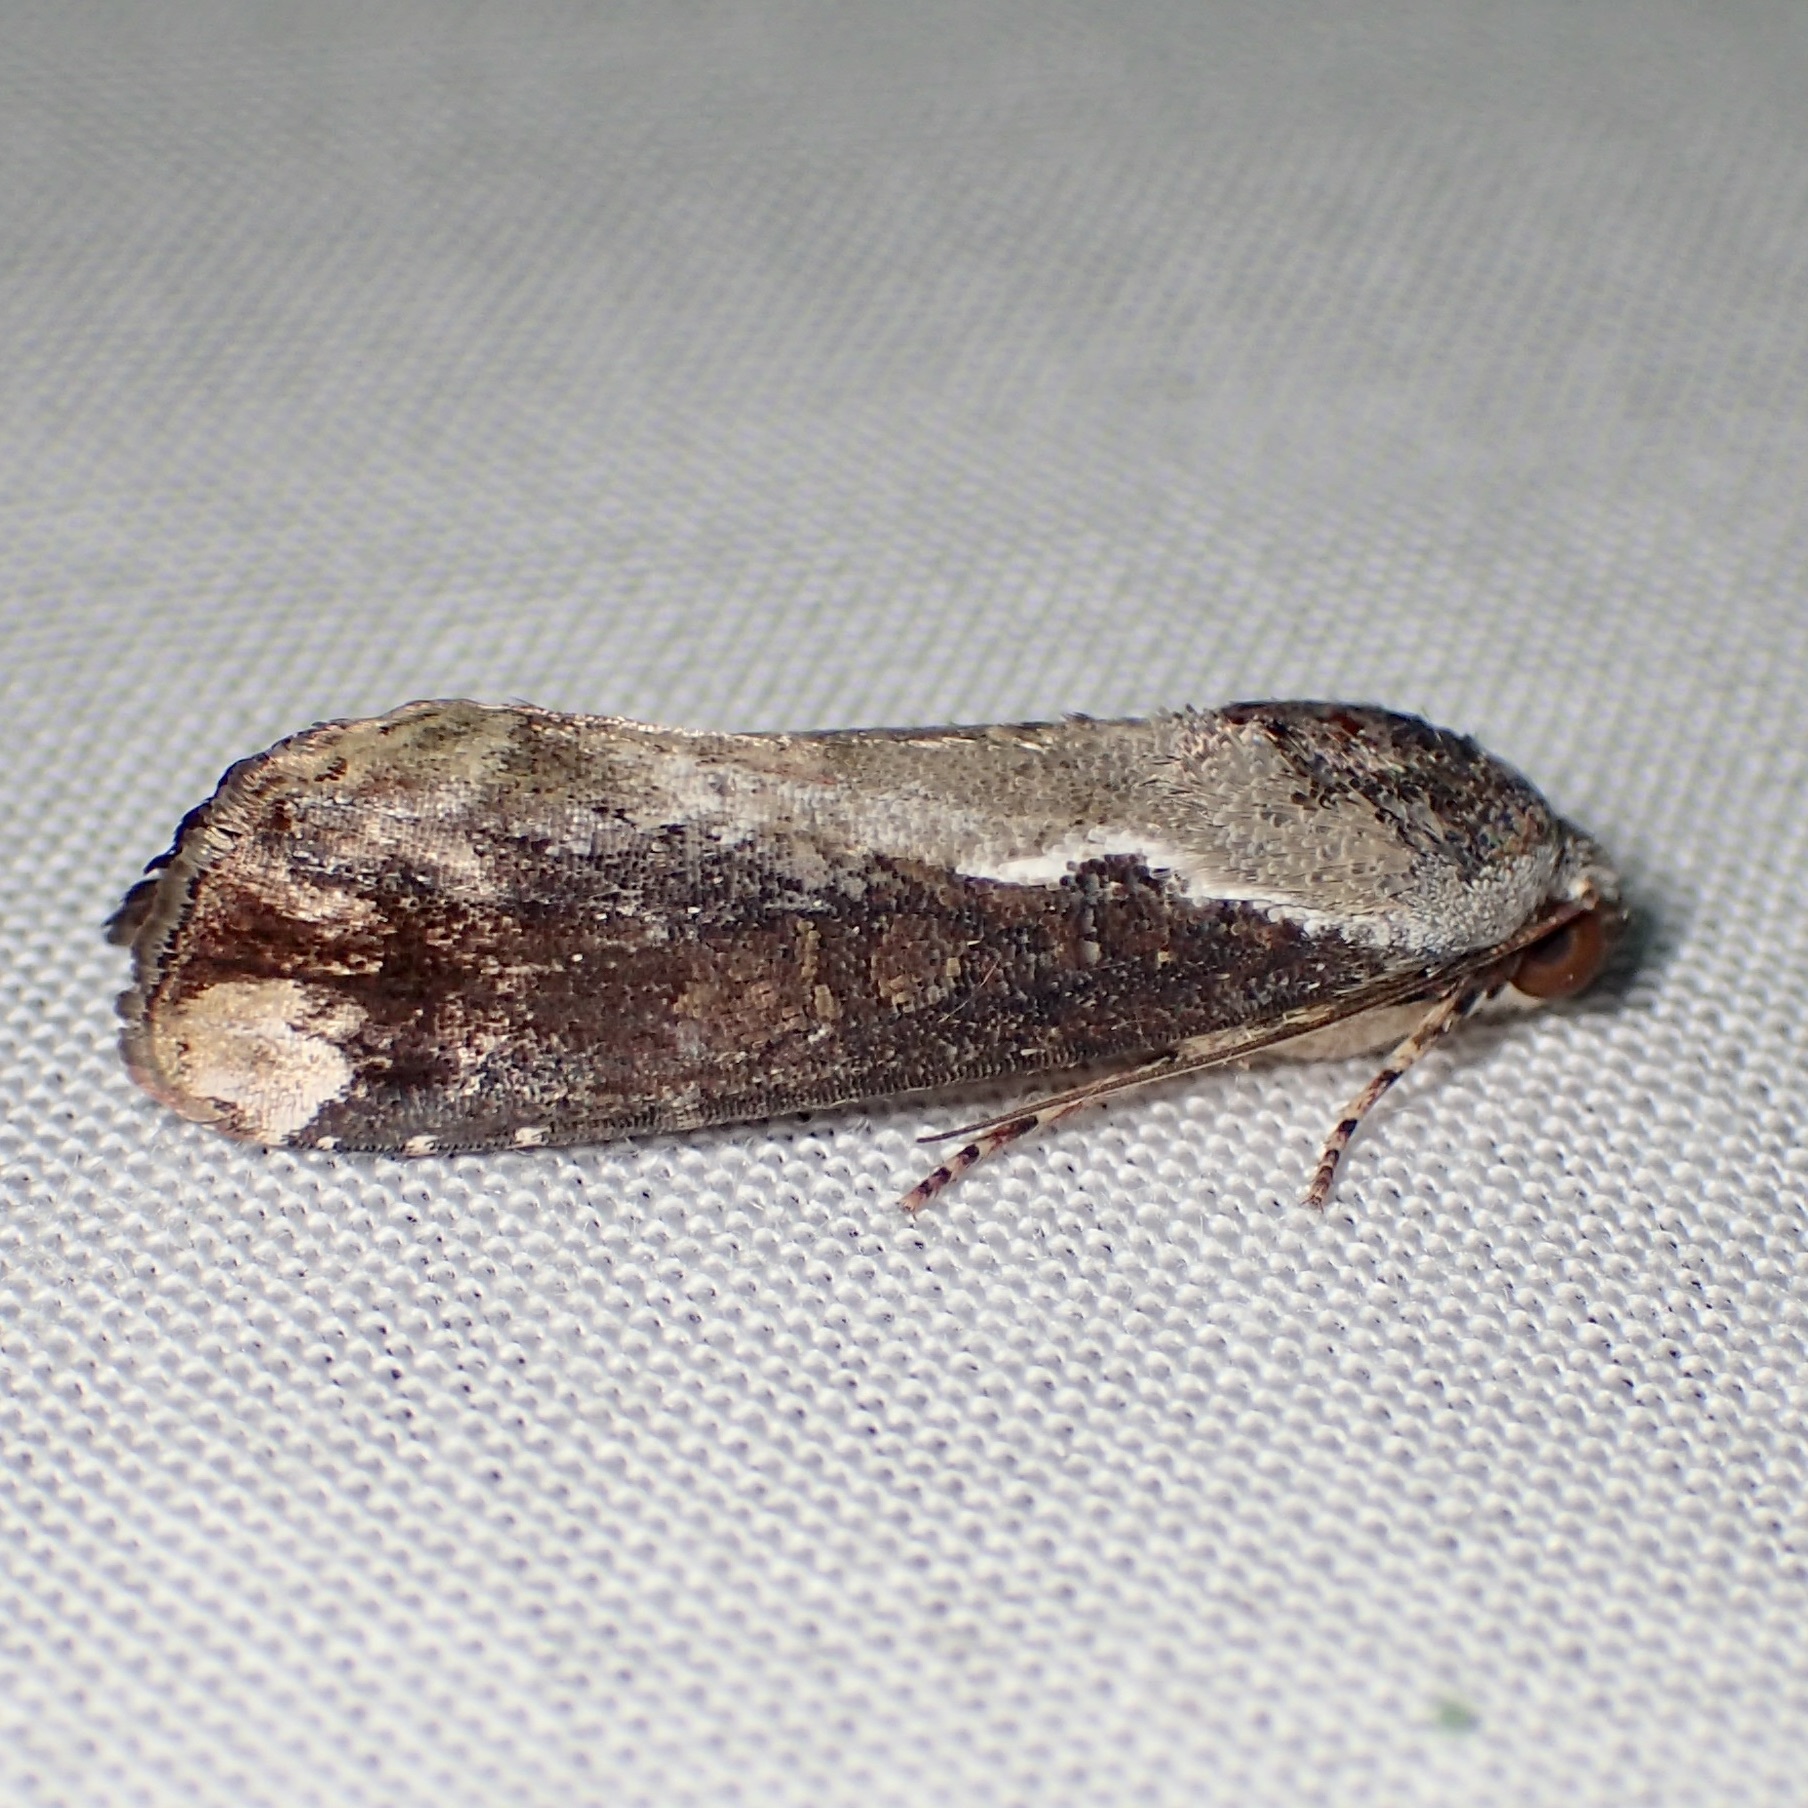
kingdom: Animalia
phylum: Arthropoda
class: Insecta
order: Lepidoptera
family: Noctuidae
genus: Magusa
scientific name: Magusa divaricata
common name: Orb narrow-winged moth
